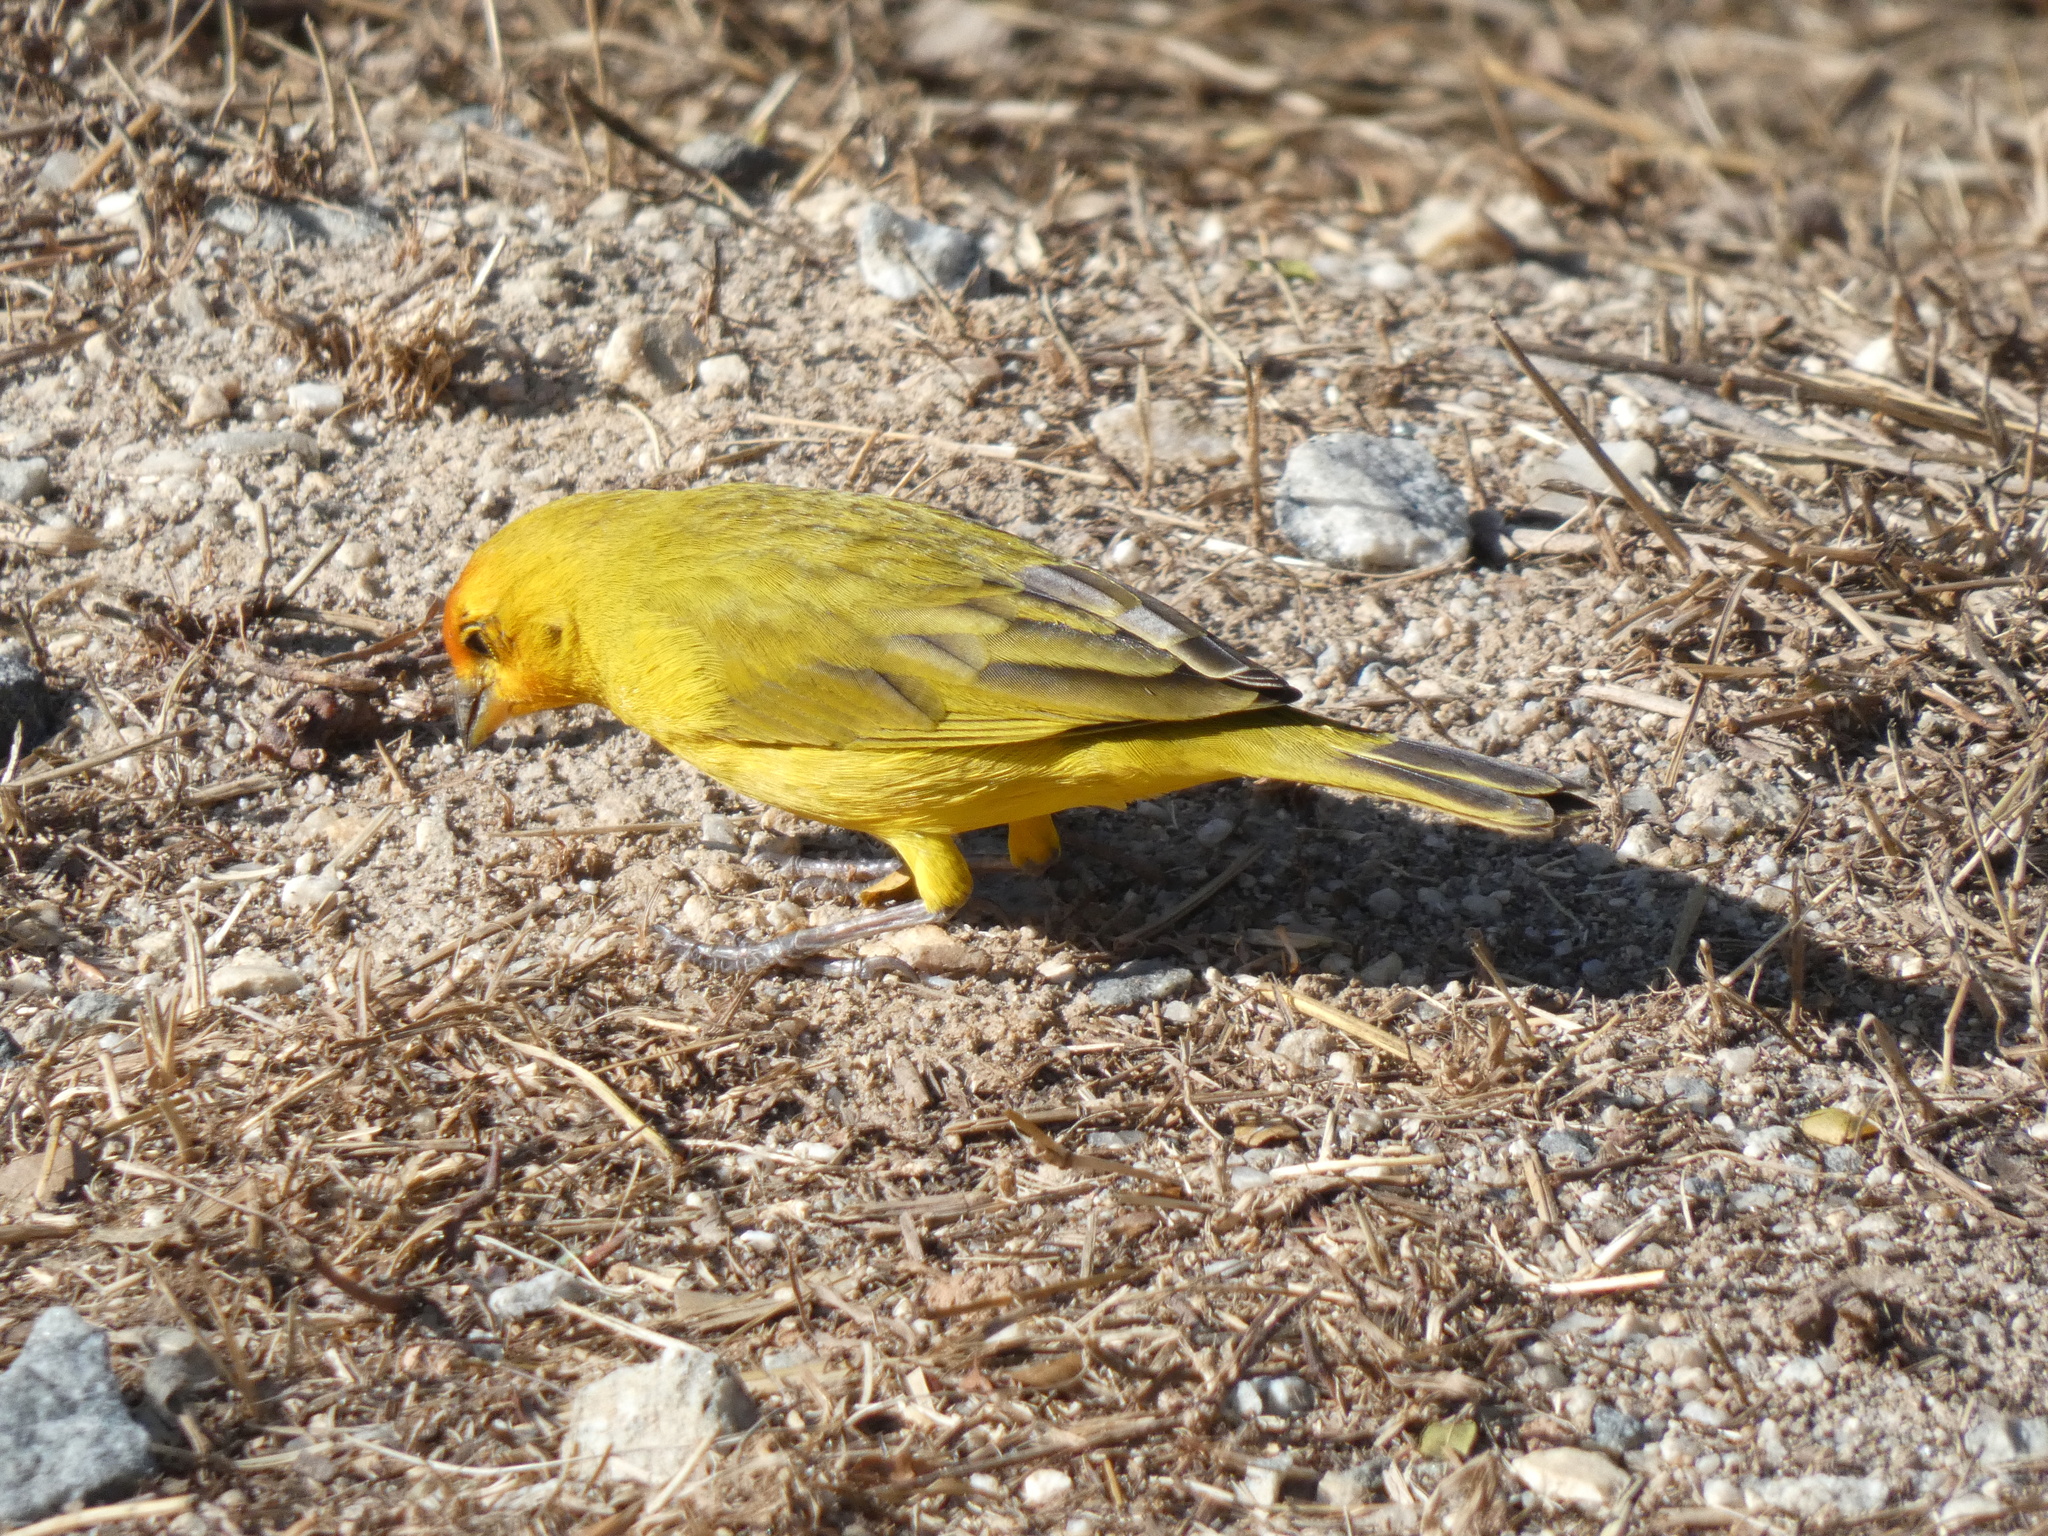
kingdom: Animalia
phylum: Chordata
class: Aves
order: Passeriformes
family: Thraupidae
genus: Sicalis
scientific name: Sicalis flaveola
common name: Saffron finch
